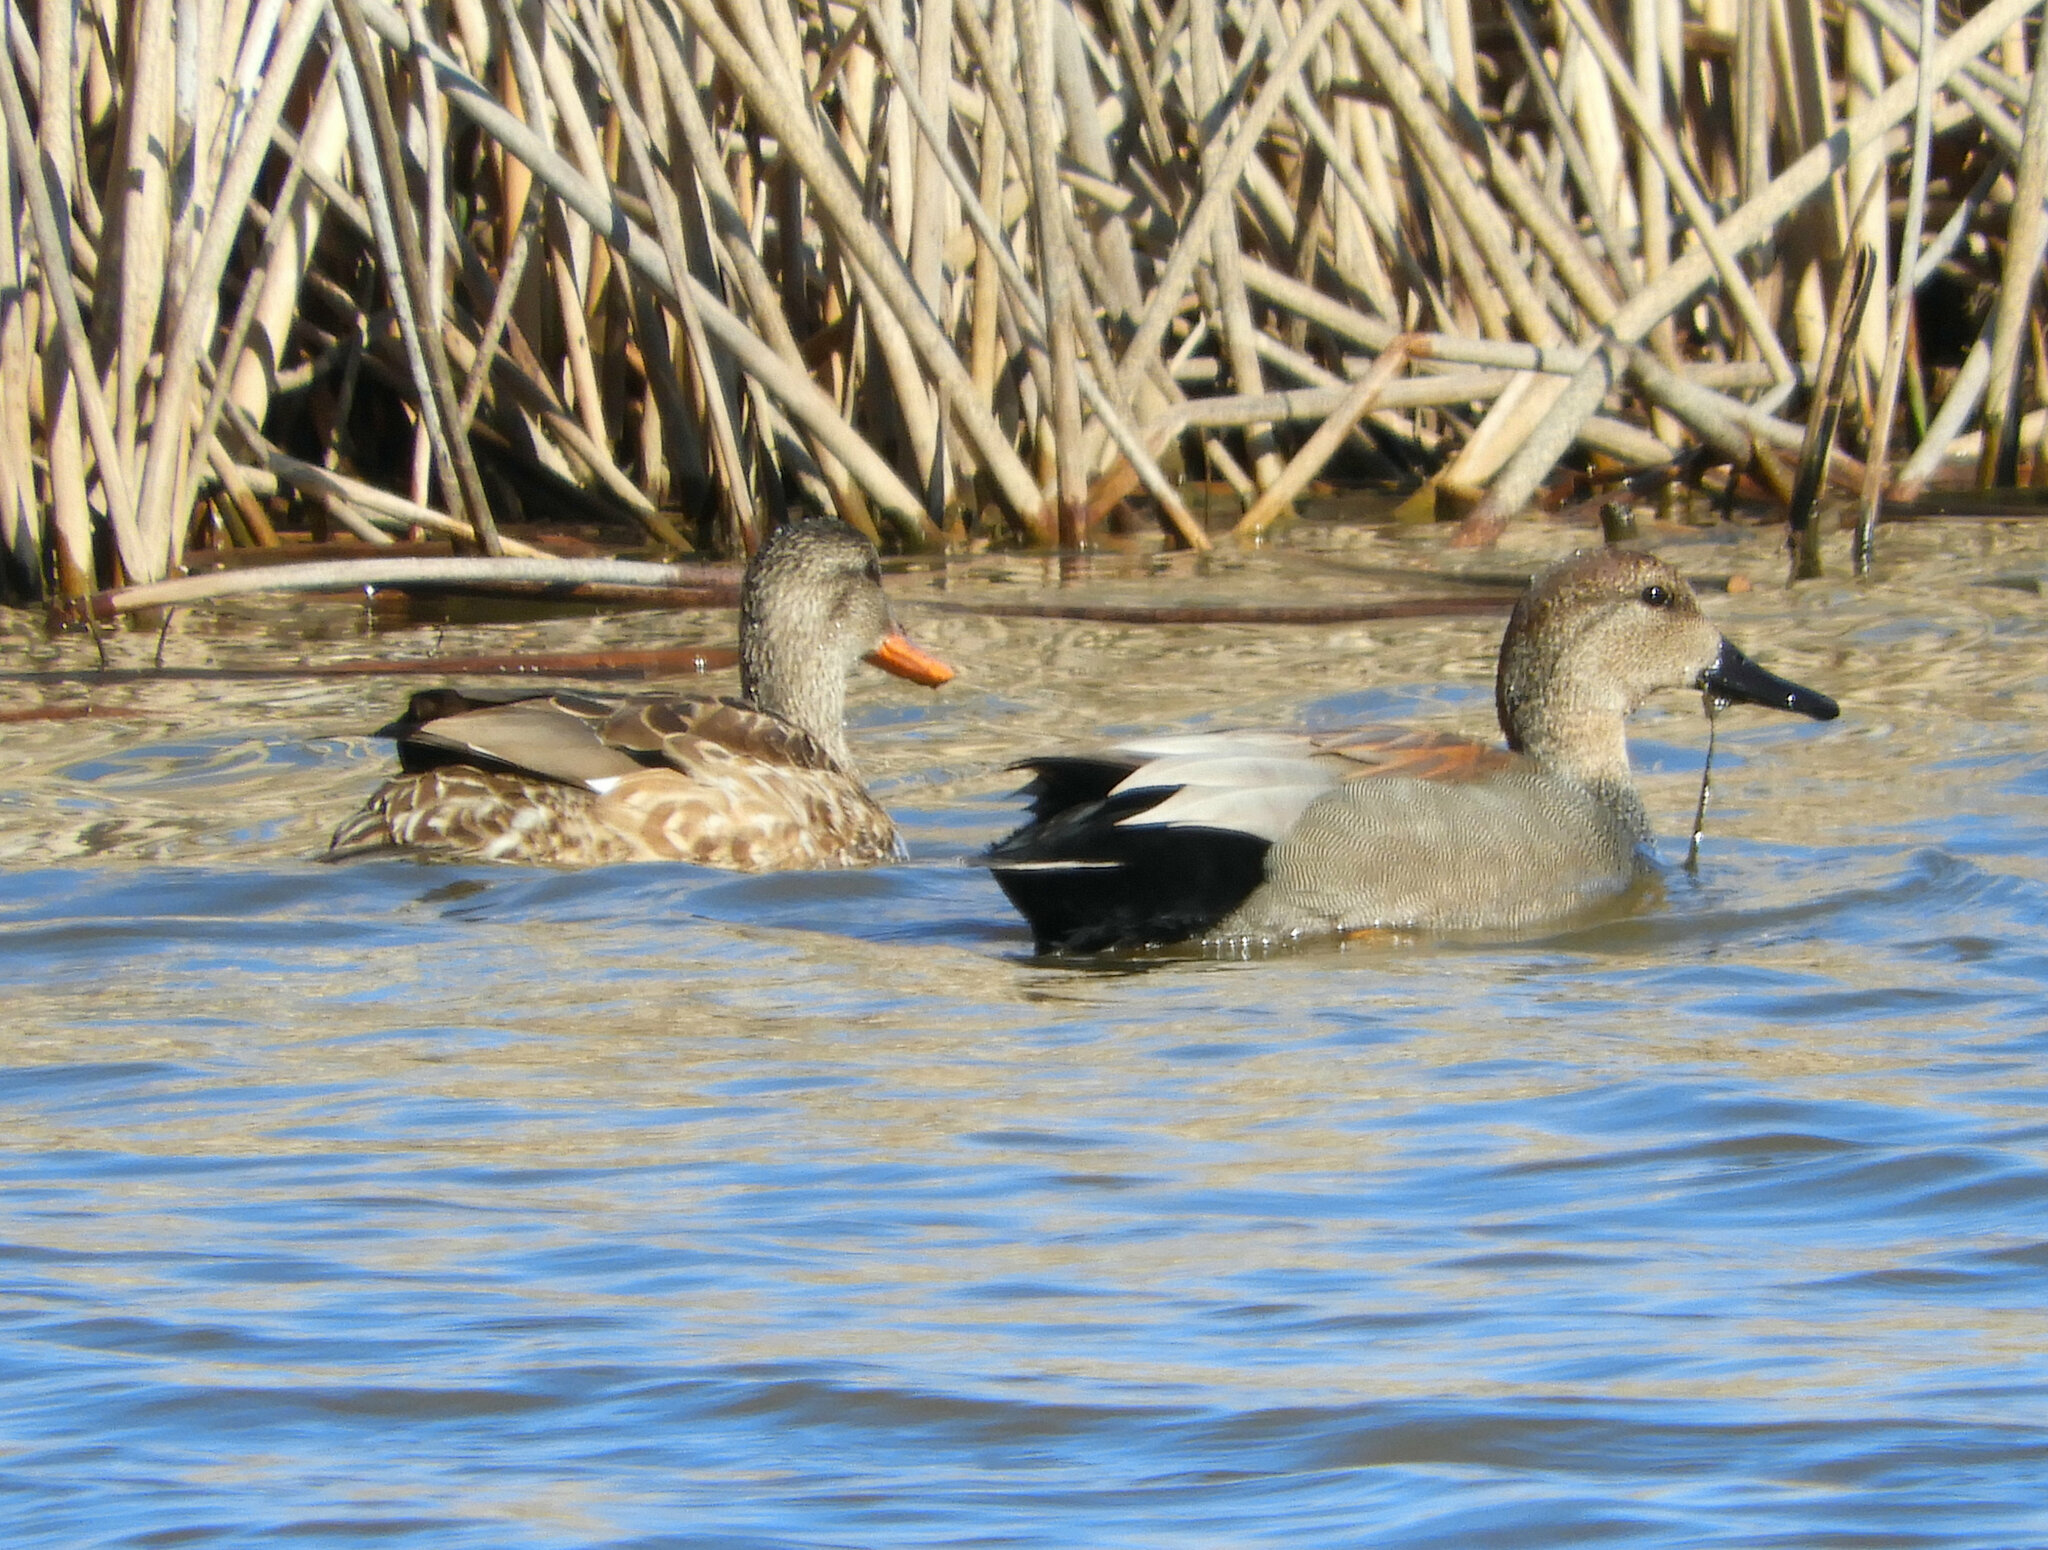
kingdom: Animalia
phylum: Chordata
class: Aves
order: Anseriformes
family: Anatidae
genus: Mareca
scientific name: Mareca strepera
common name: Gadwall
